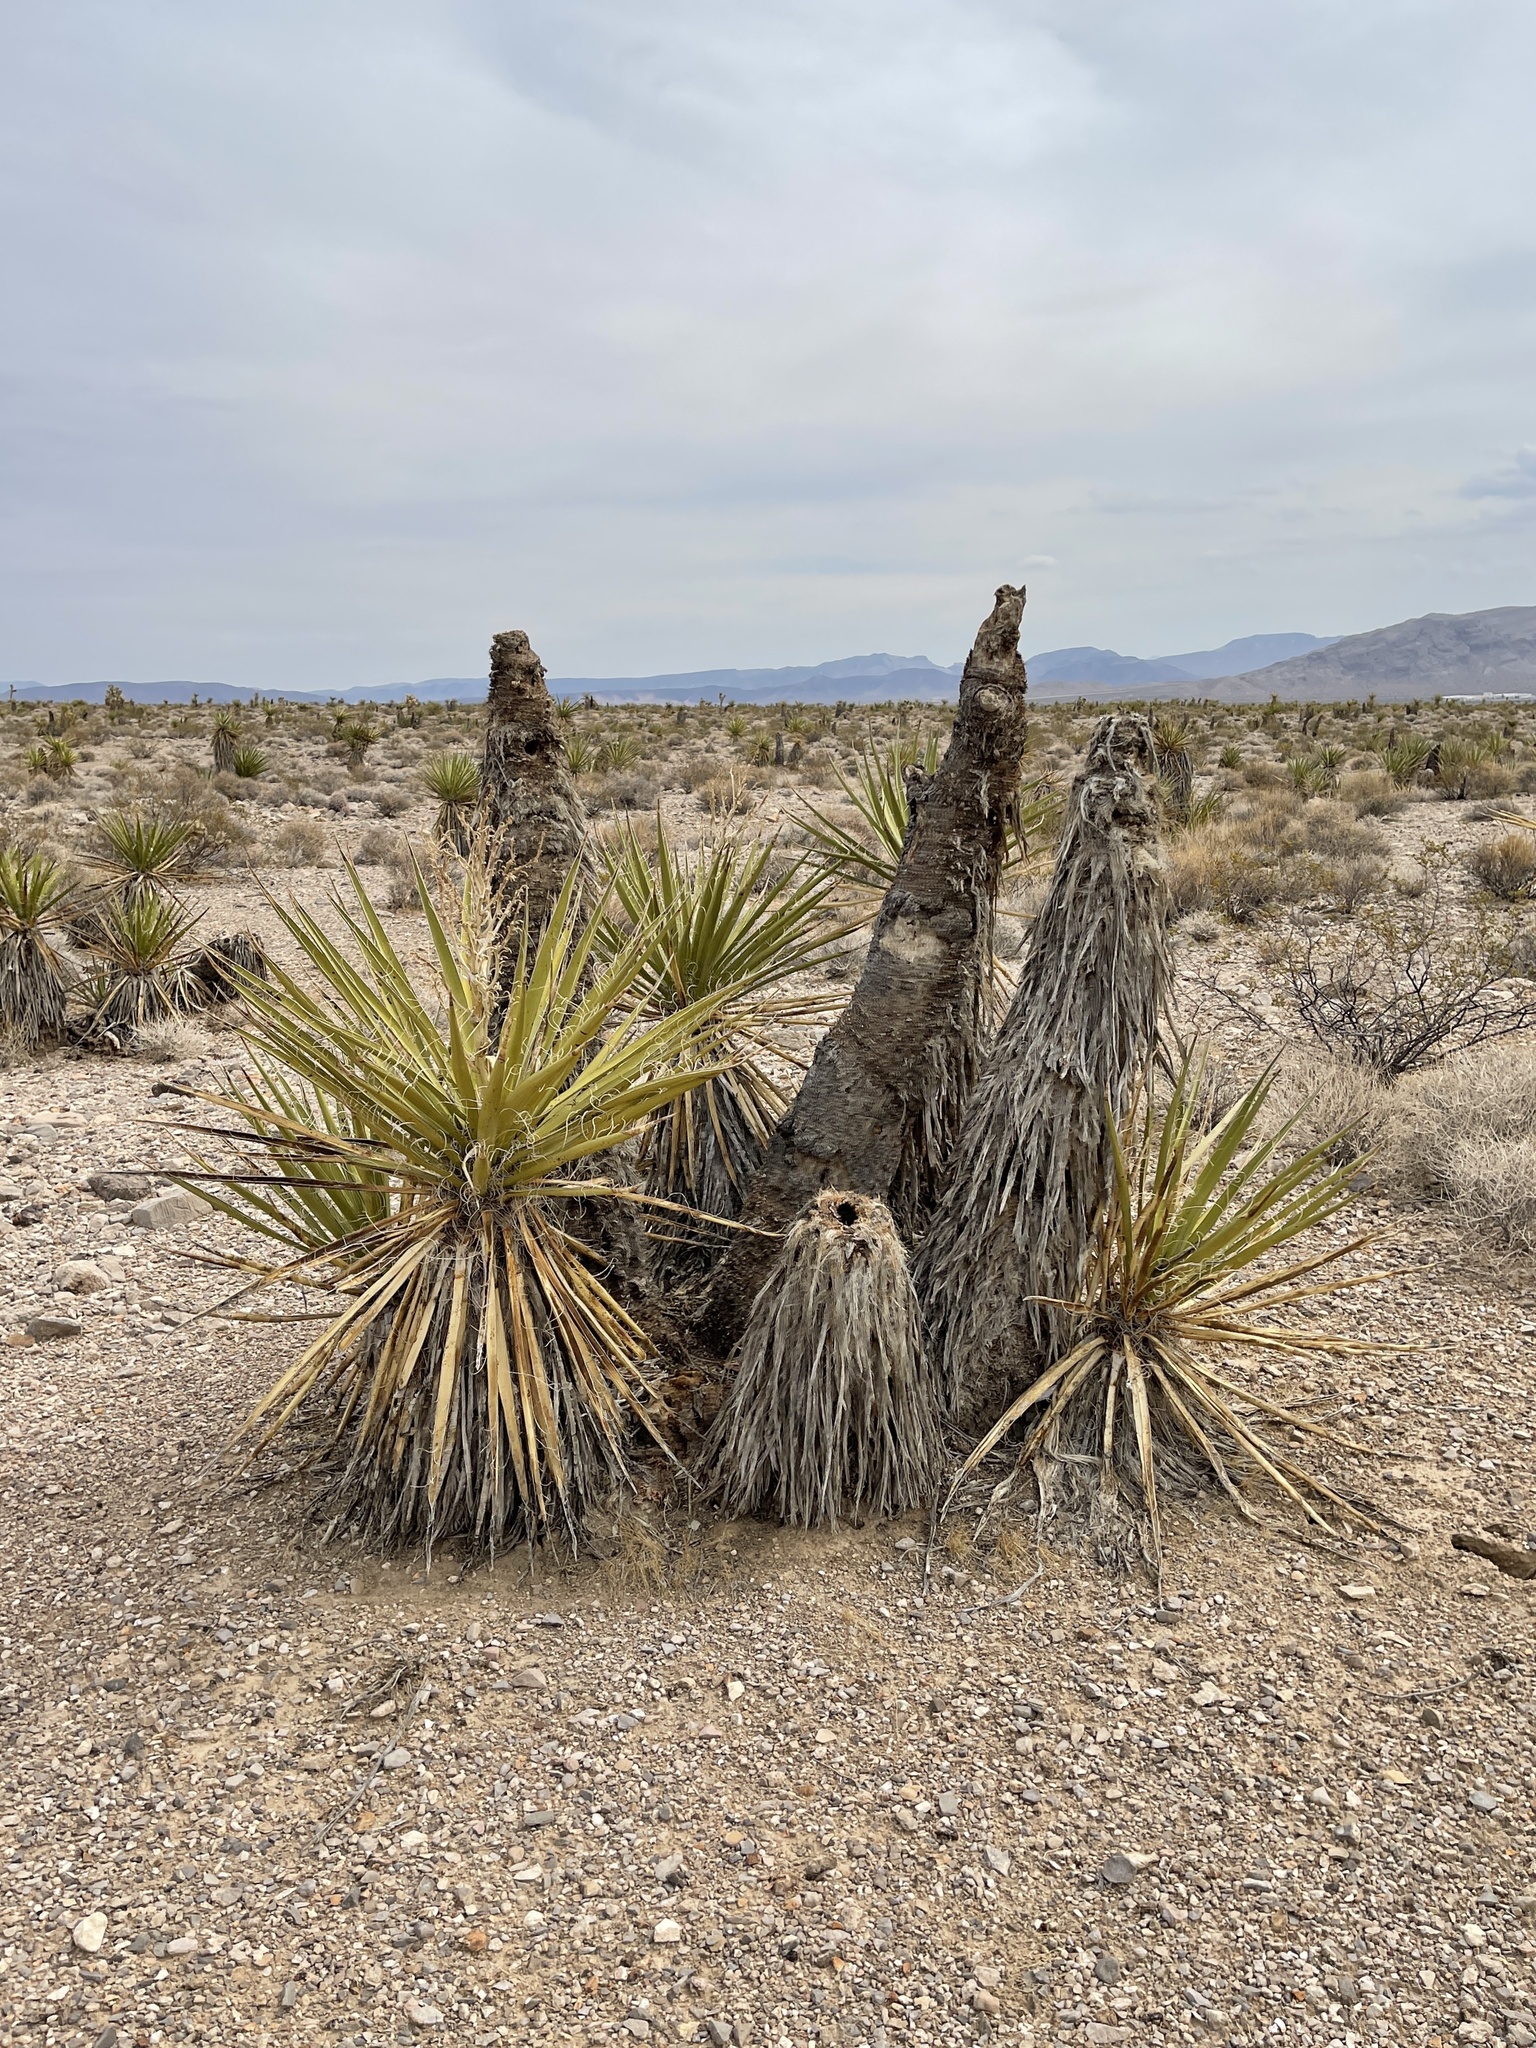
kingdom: Plantae
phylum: Tracheophyta
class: Liliopsida
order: Asparagales
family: Asparagaceae
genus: Yucca
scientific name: Yucca schidigera
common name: Mojave yucca
